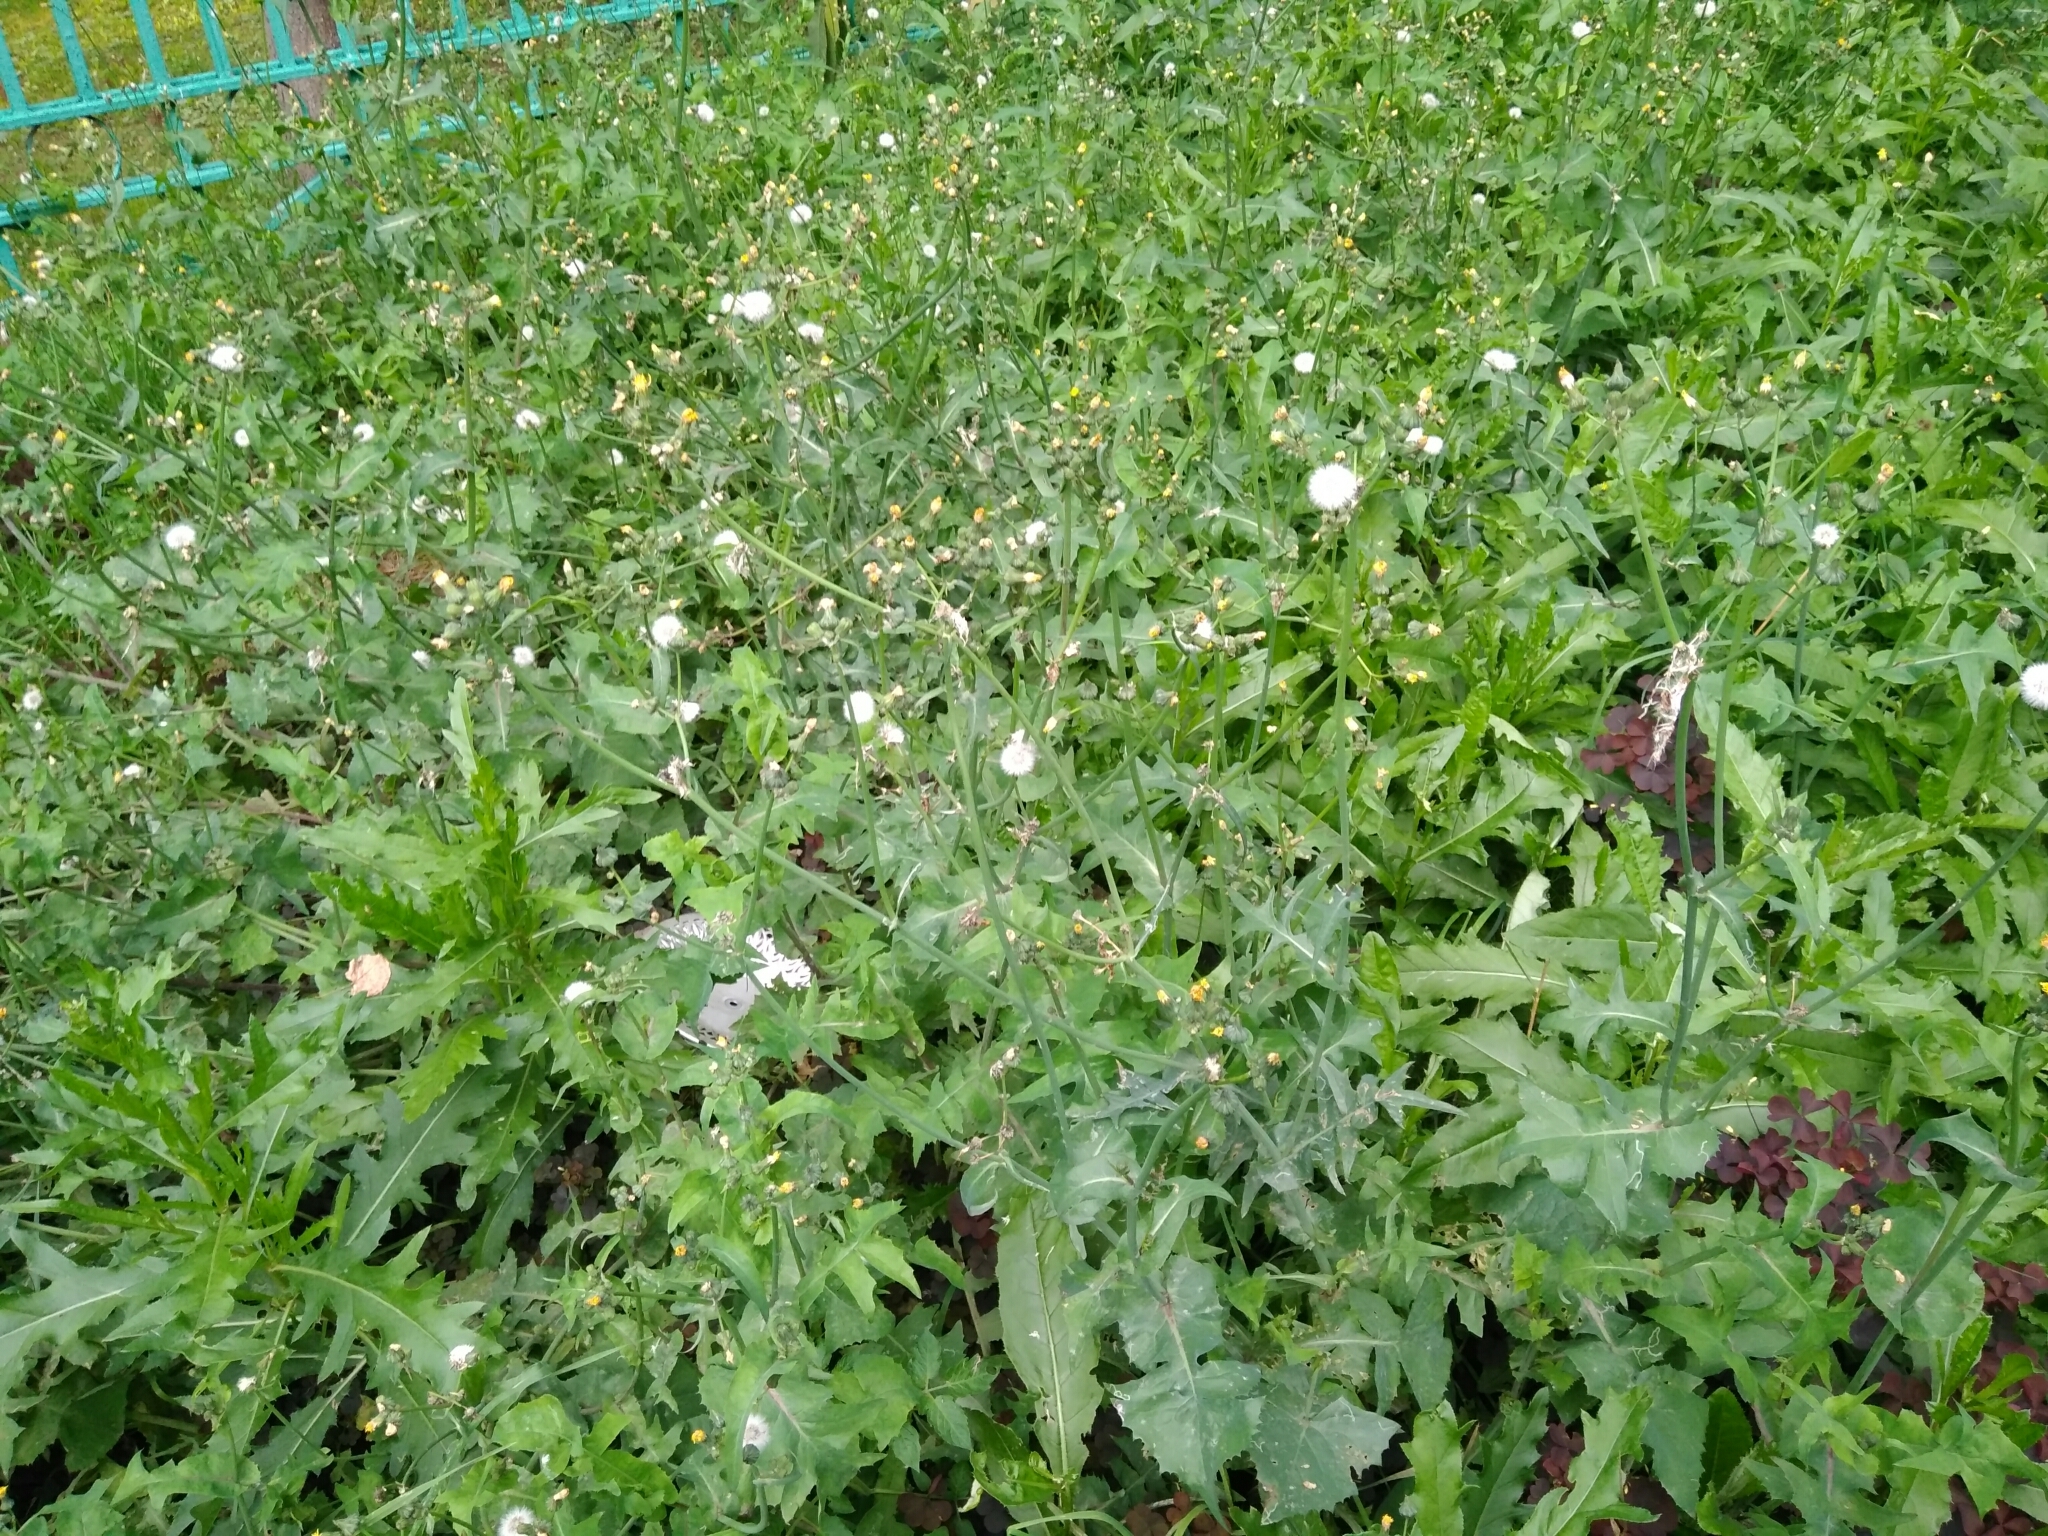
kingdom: Plantae
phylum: Tracheophyta
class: Magnoliopsida
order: Asterales
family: Asteraceae
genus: Sonchus
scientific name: Sonchus oleraceus
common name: Common sowthistle
